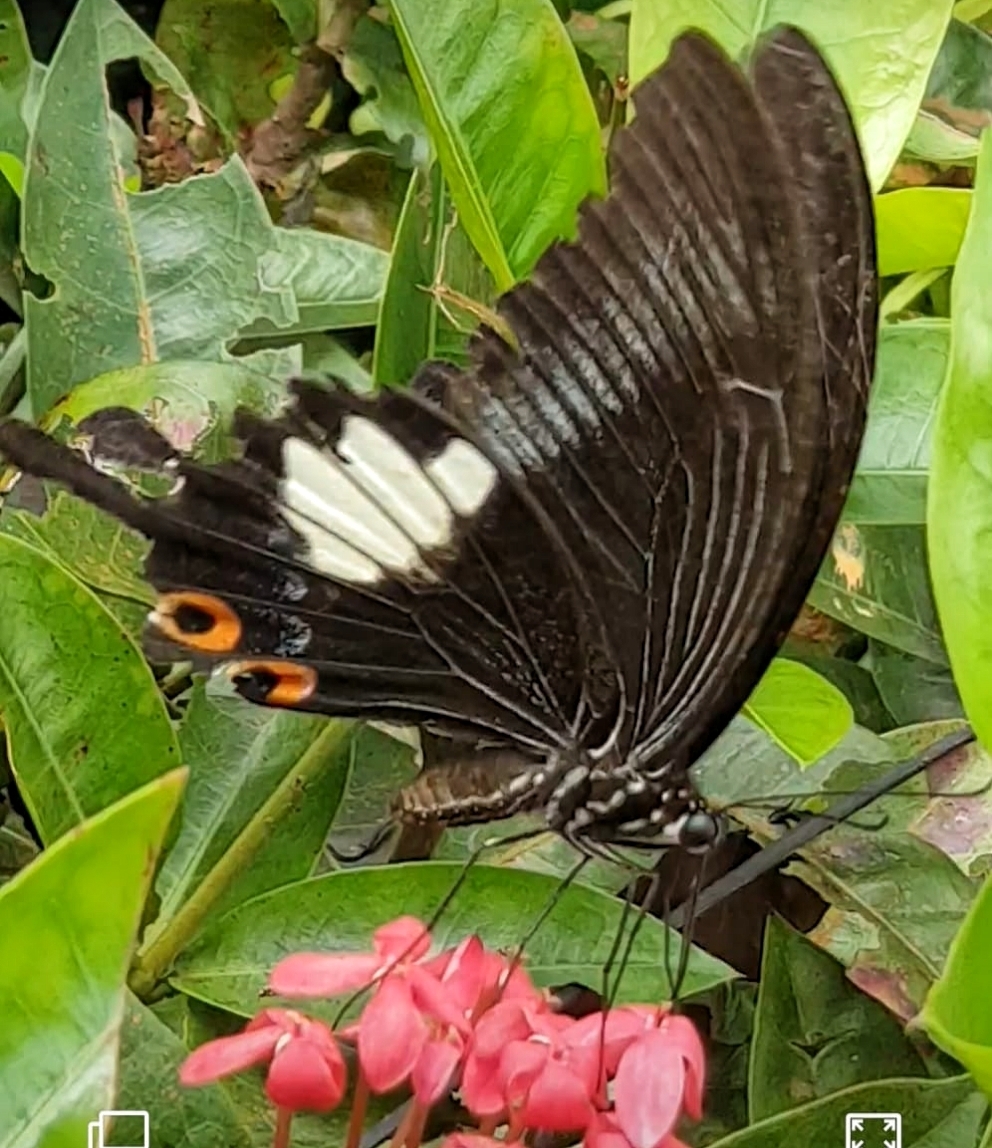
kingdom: Animalia
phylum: Arthropoda
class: Insecta
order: Lepidoptera
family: Papilionidae
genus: Papilio
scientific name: Papilio iswara
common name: Great helen swallowtail
